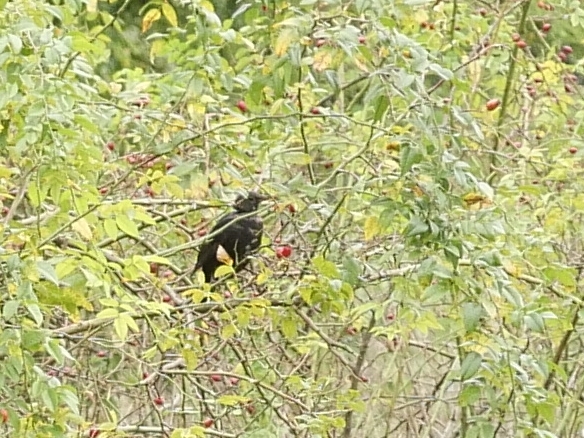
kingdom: Animalia
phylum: Chordata
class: Aves
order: Passeriformes
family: Turdidae
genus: Turdus
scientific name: Turdus merula
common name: Common blackbird
